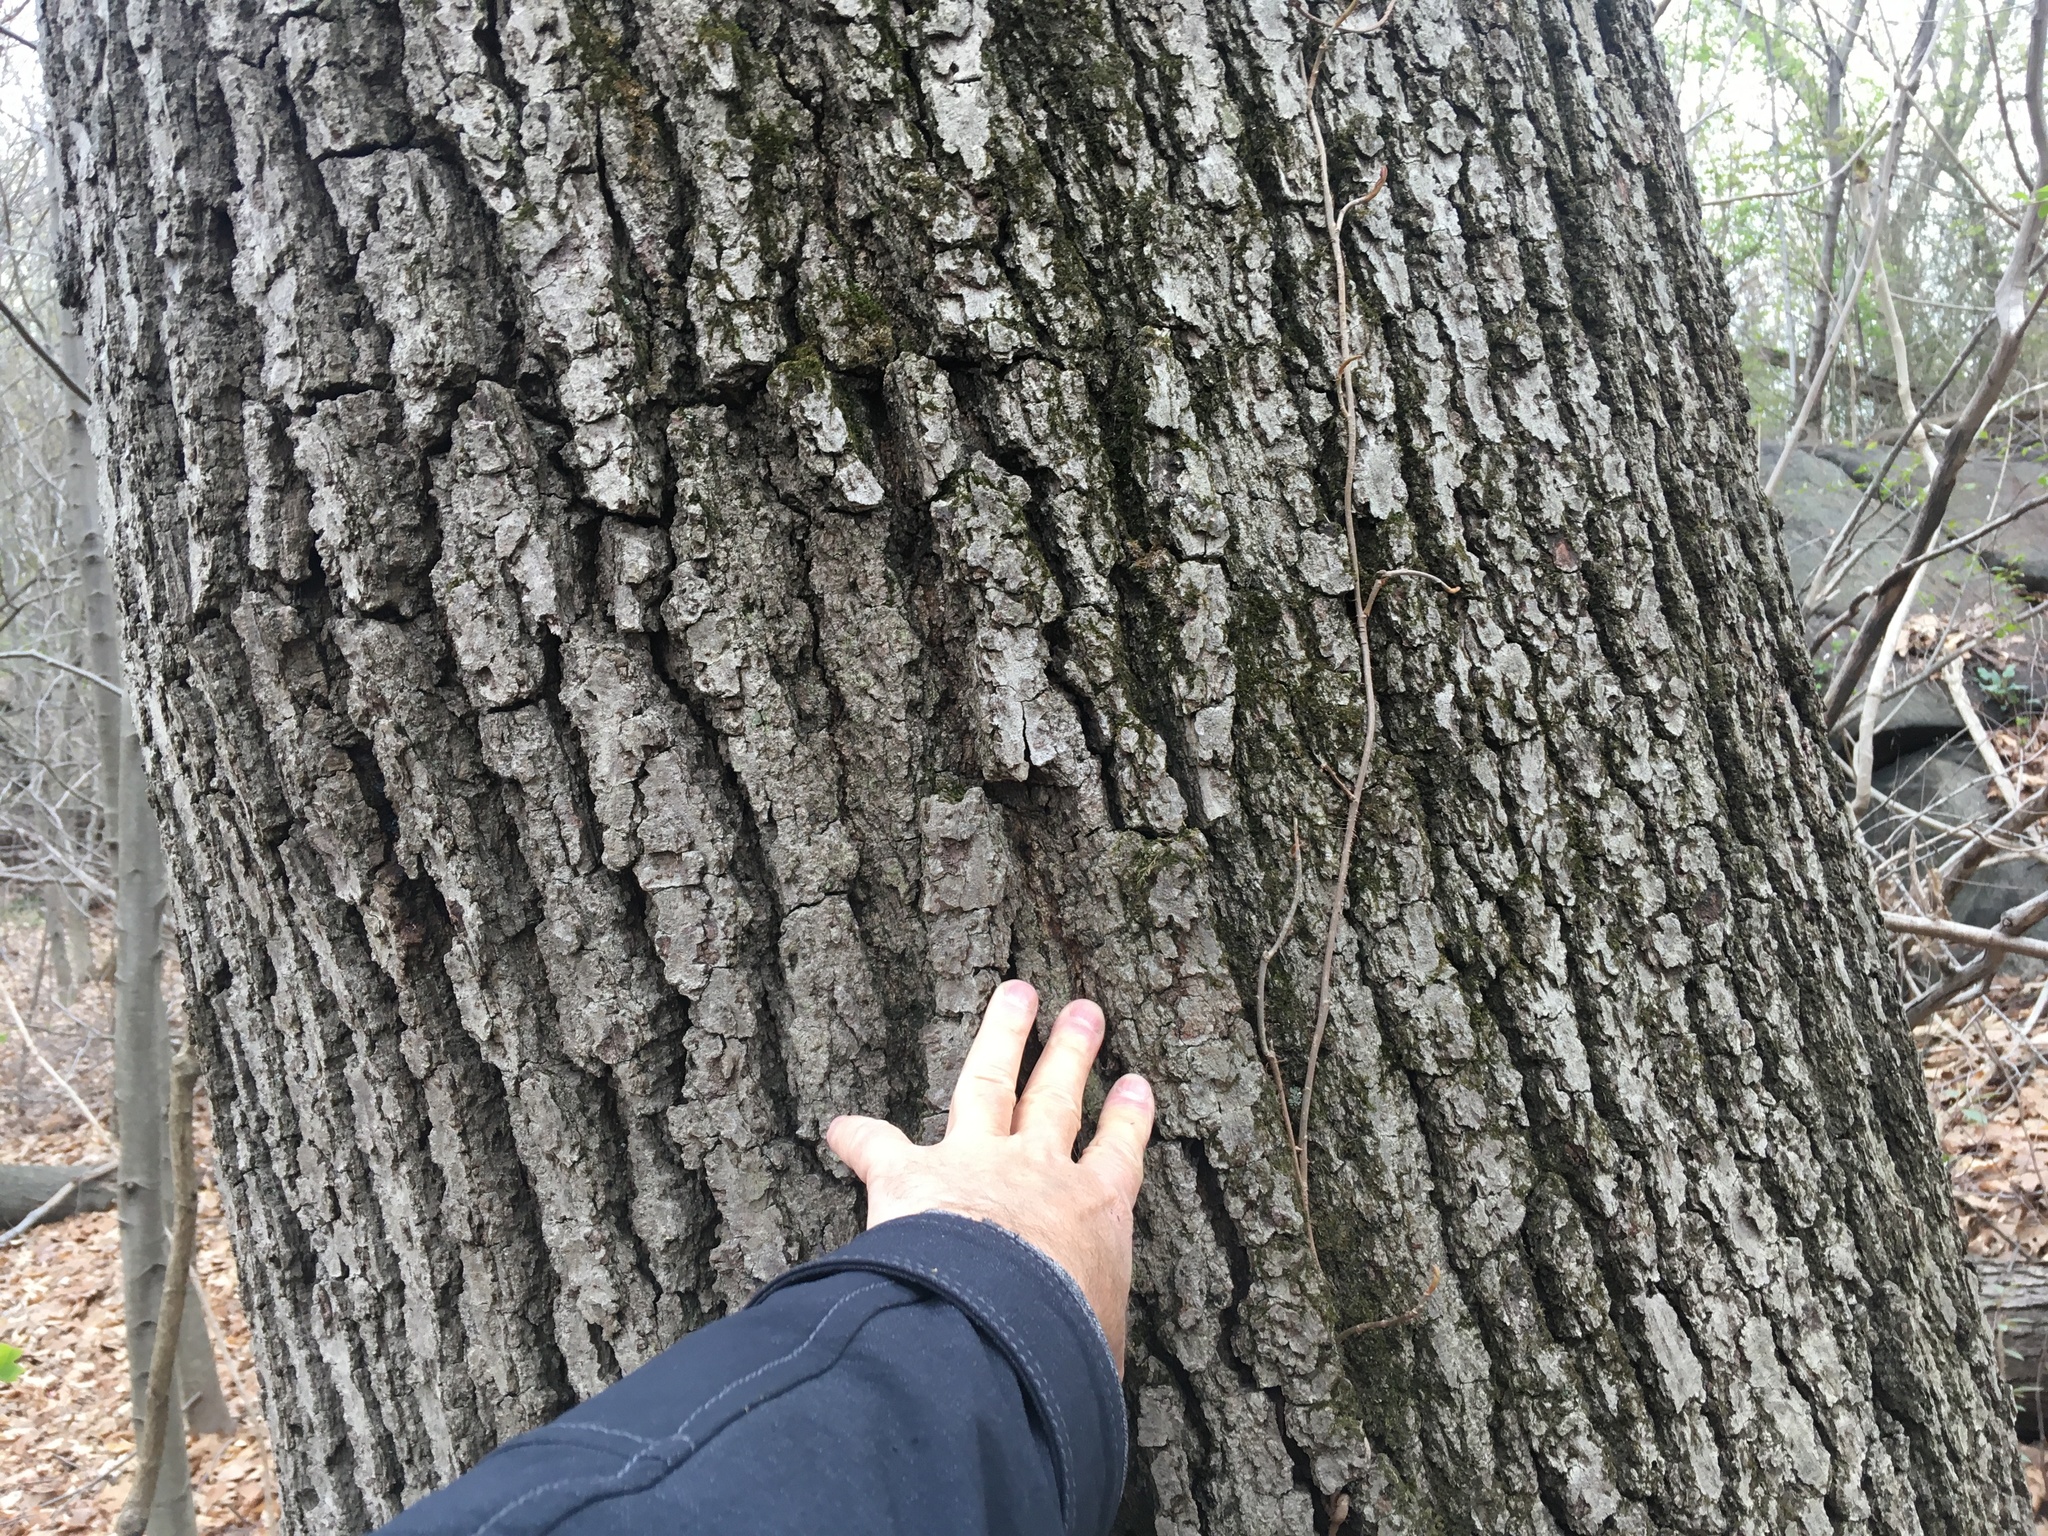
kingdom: Plantae
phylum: Tracheophyta
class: Magnoliopsida
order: Fagales
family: Fagaceae
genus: Quercus
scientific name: Quercus velutina
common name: Black oak
